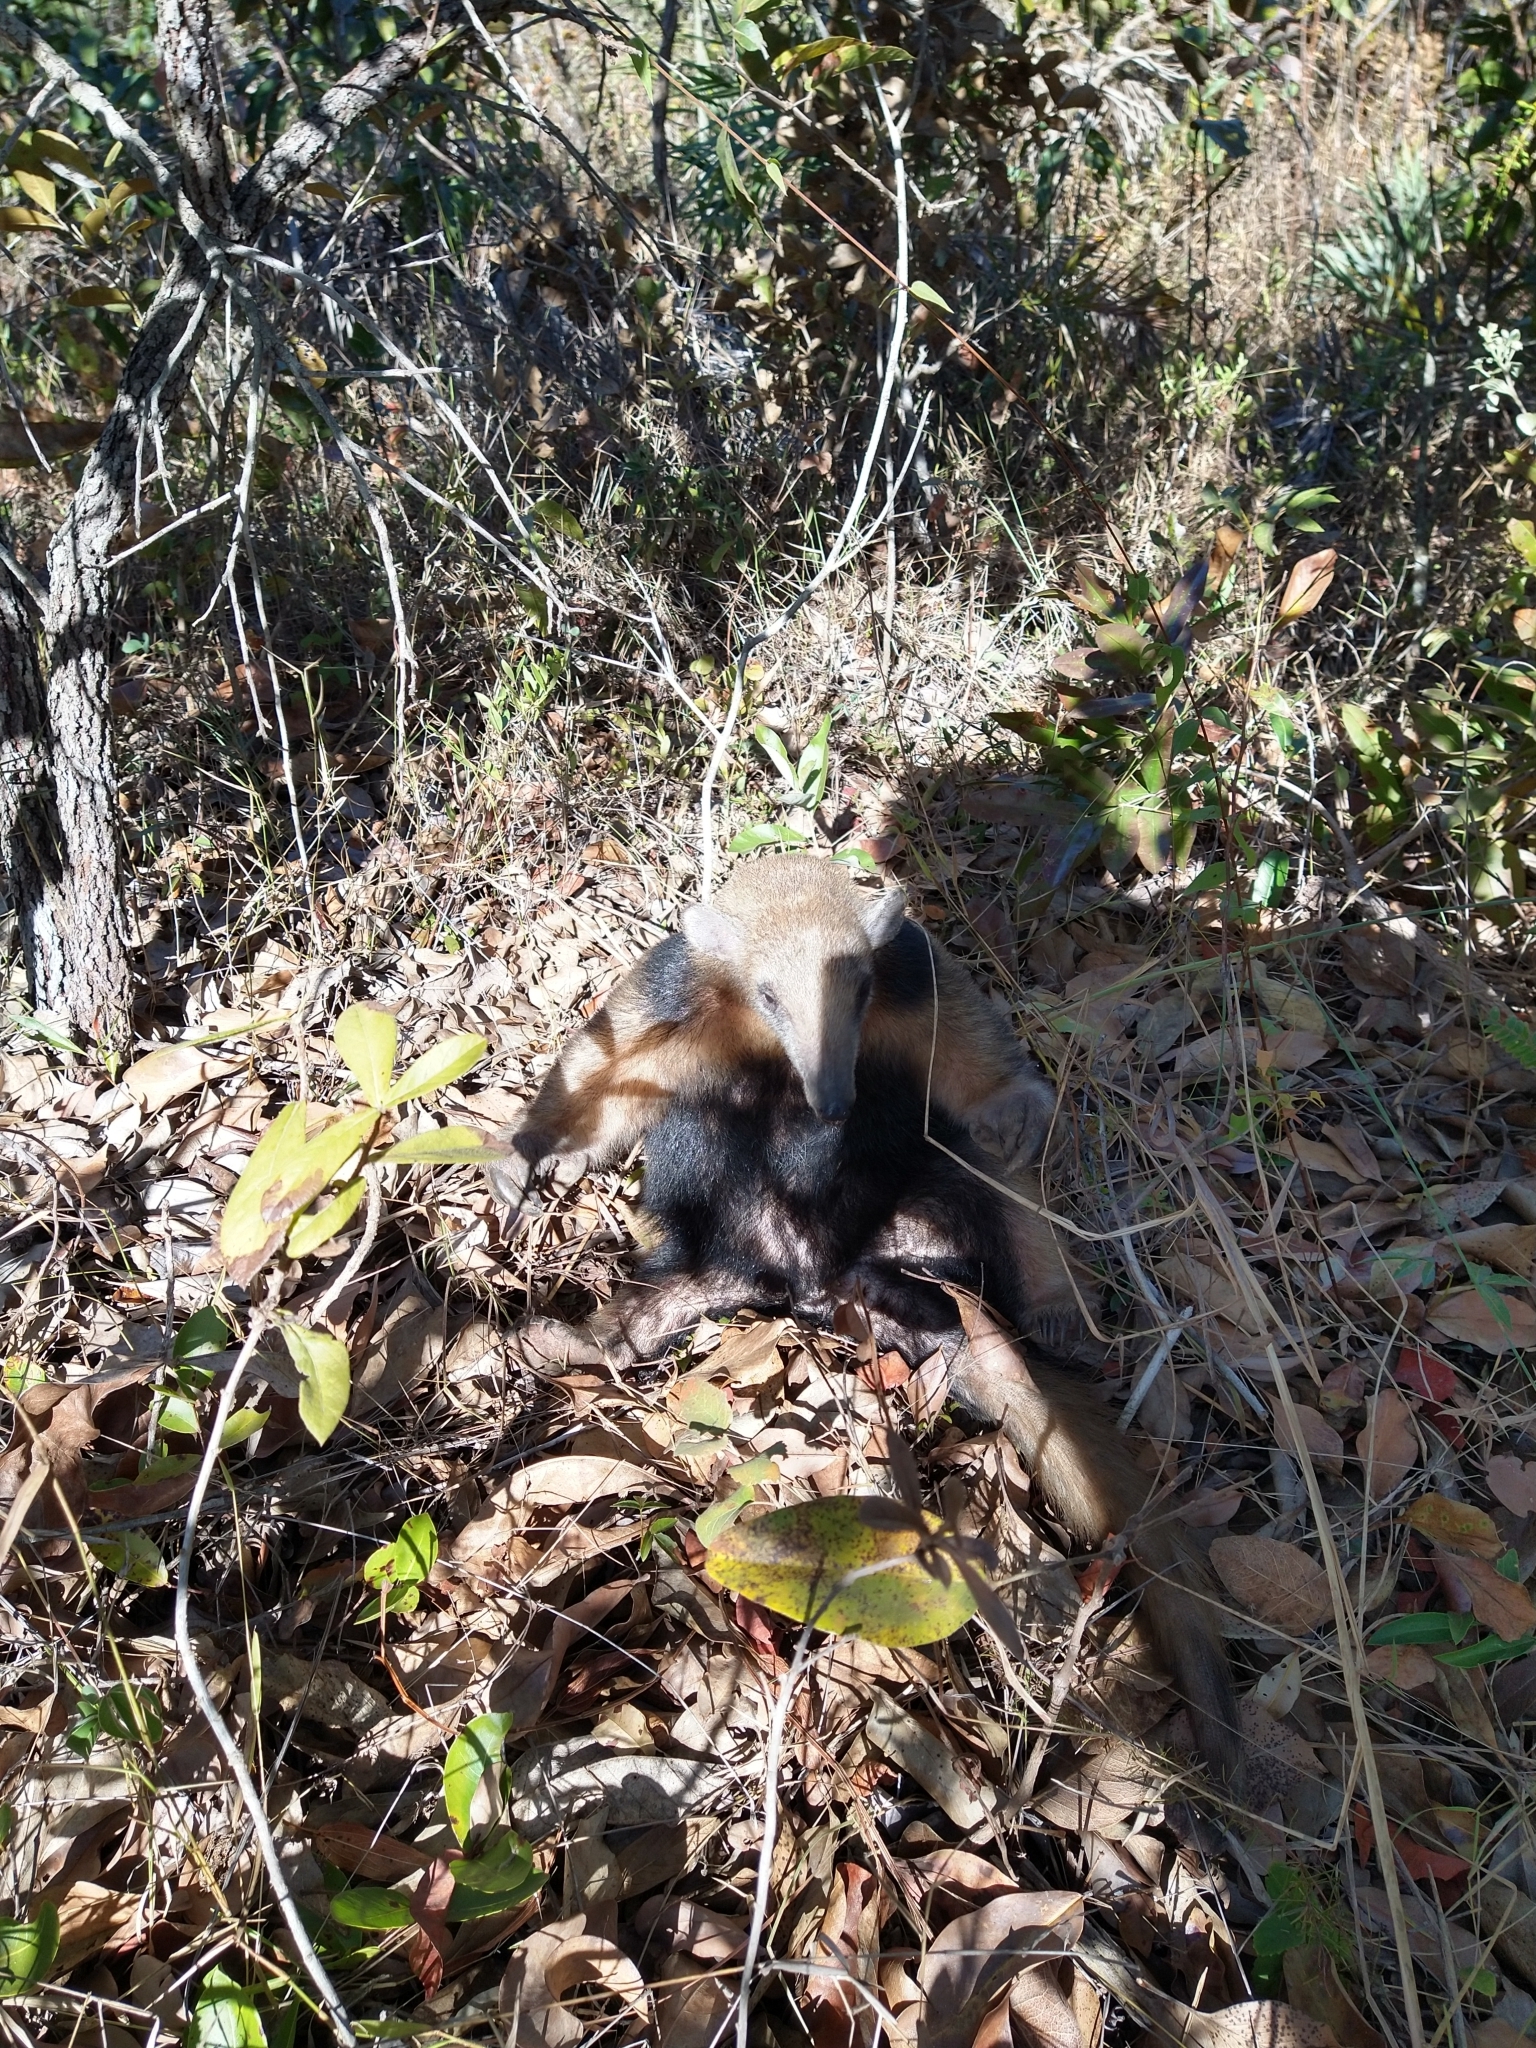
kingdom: Animalia
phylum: Chordata
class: Mammalia
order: Pilosa
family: Myrmecophagidae
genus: Tamandua
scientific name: Tamandua tetradactyla
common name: Southern tamandua
